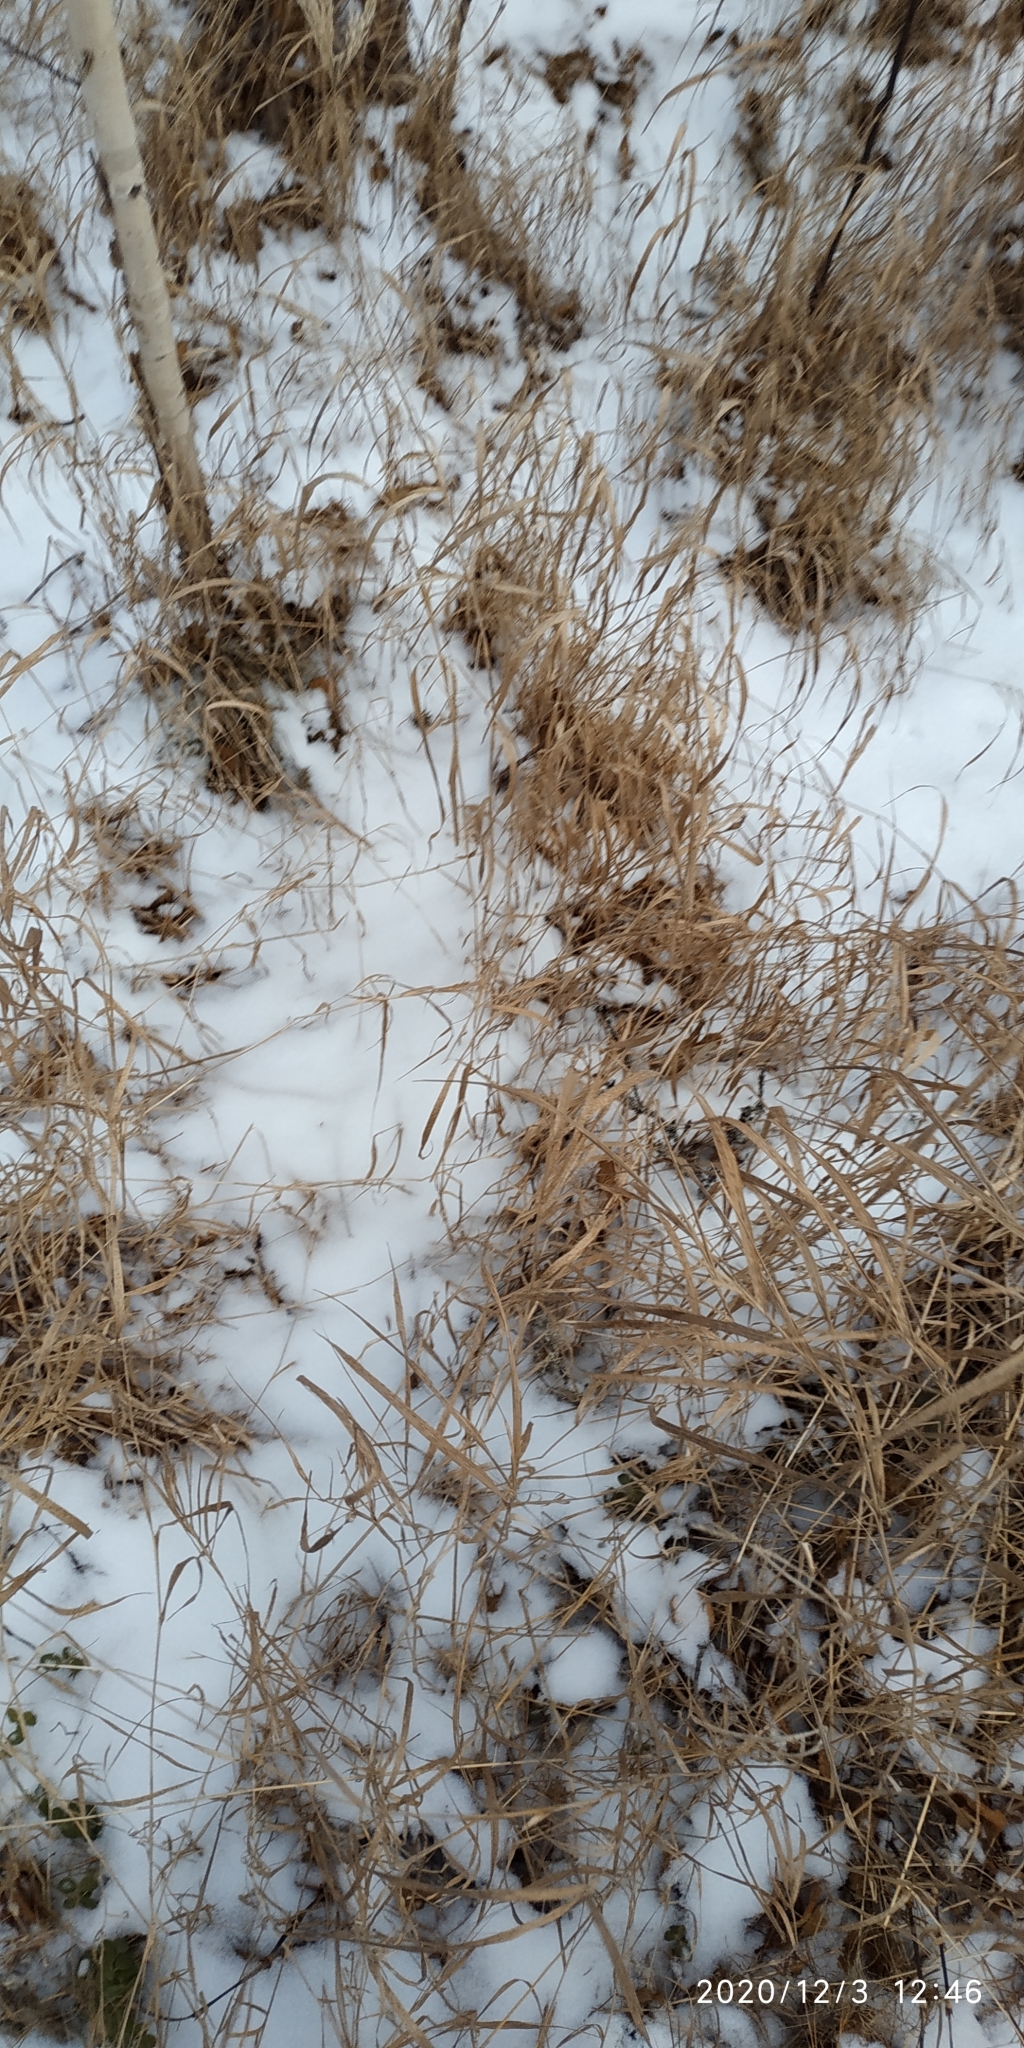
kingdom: Plantae
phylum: Tracheophyta
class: Liliopsida
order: Poales
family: Poaceae
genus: Calamagrostis
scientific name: Calamagrostis purpurea
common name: Scandinavian small-reed
